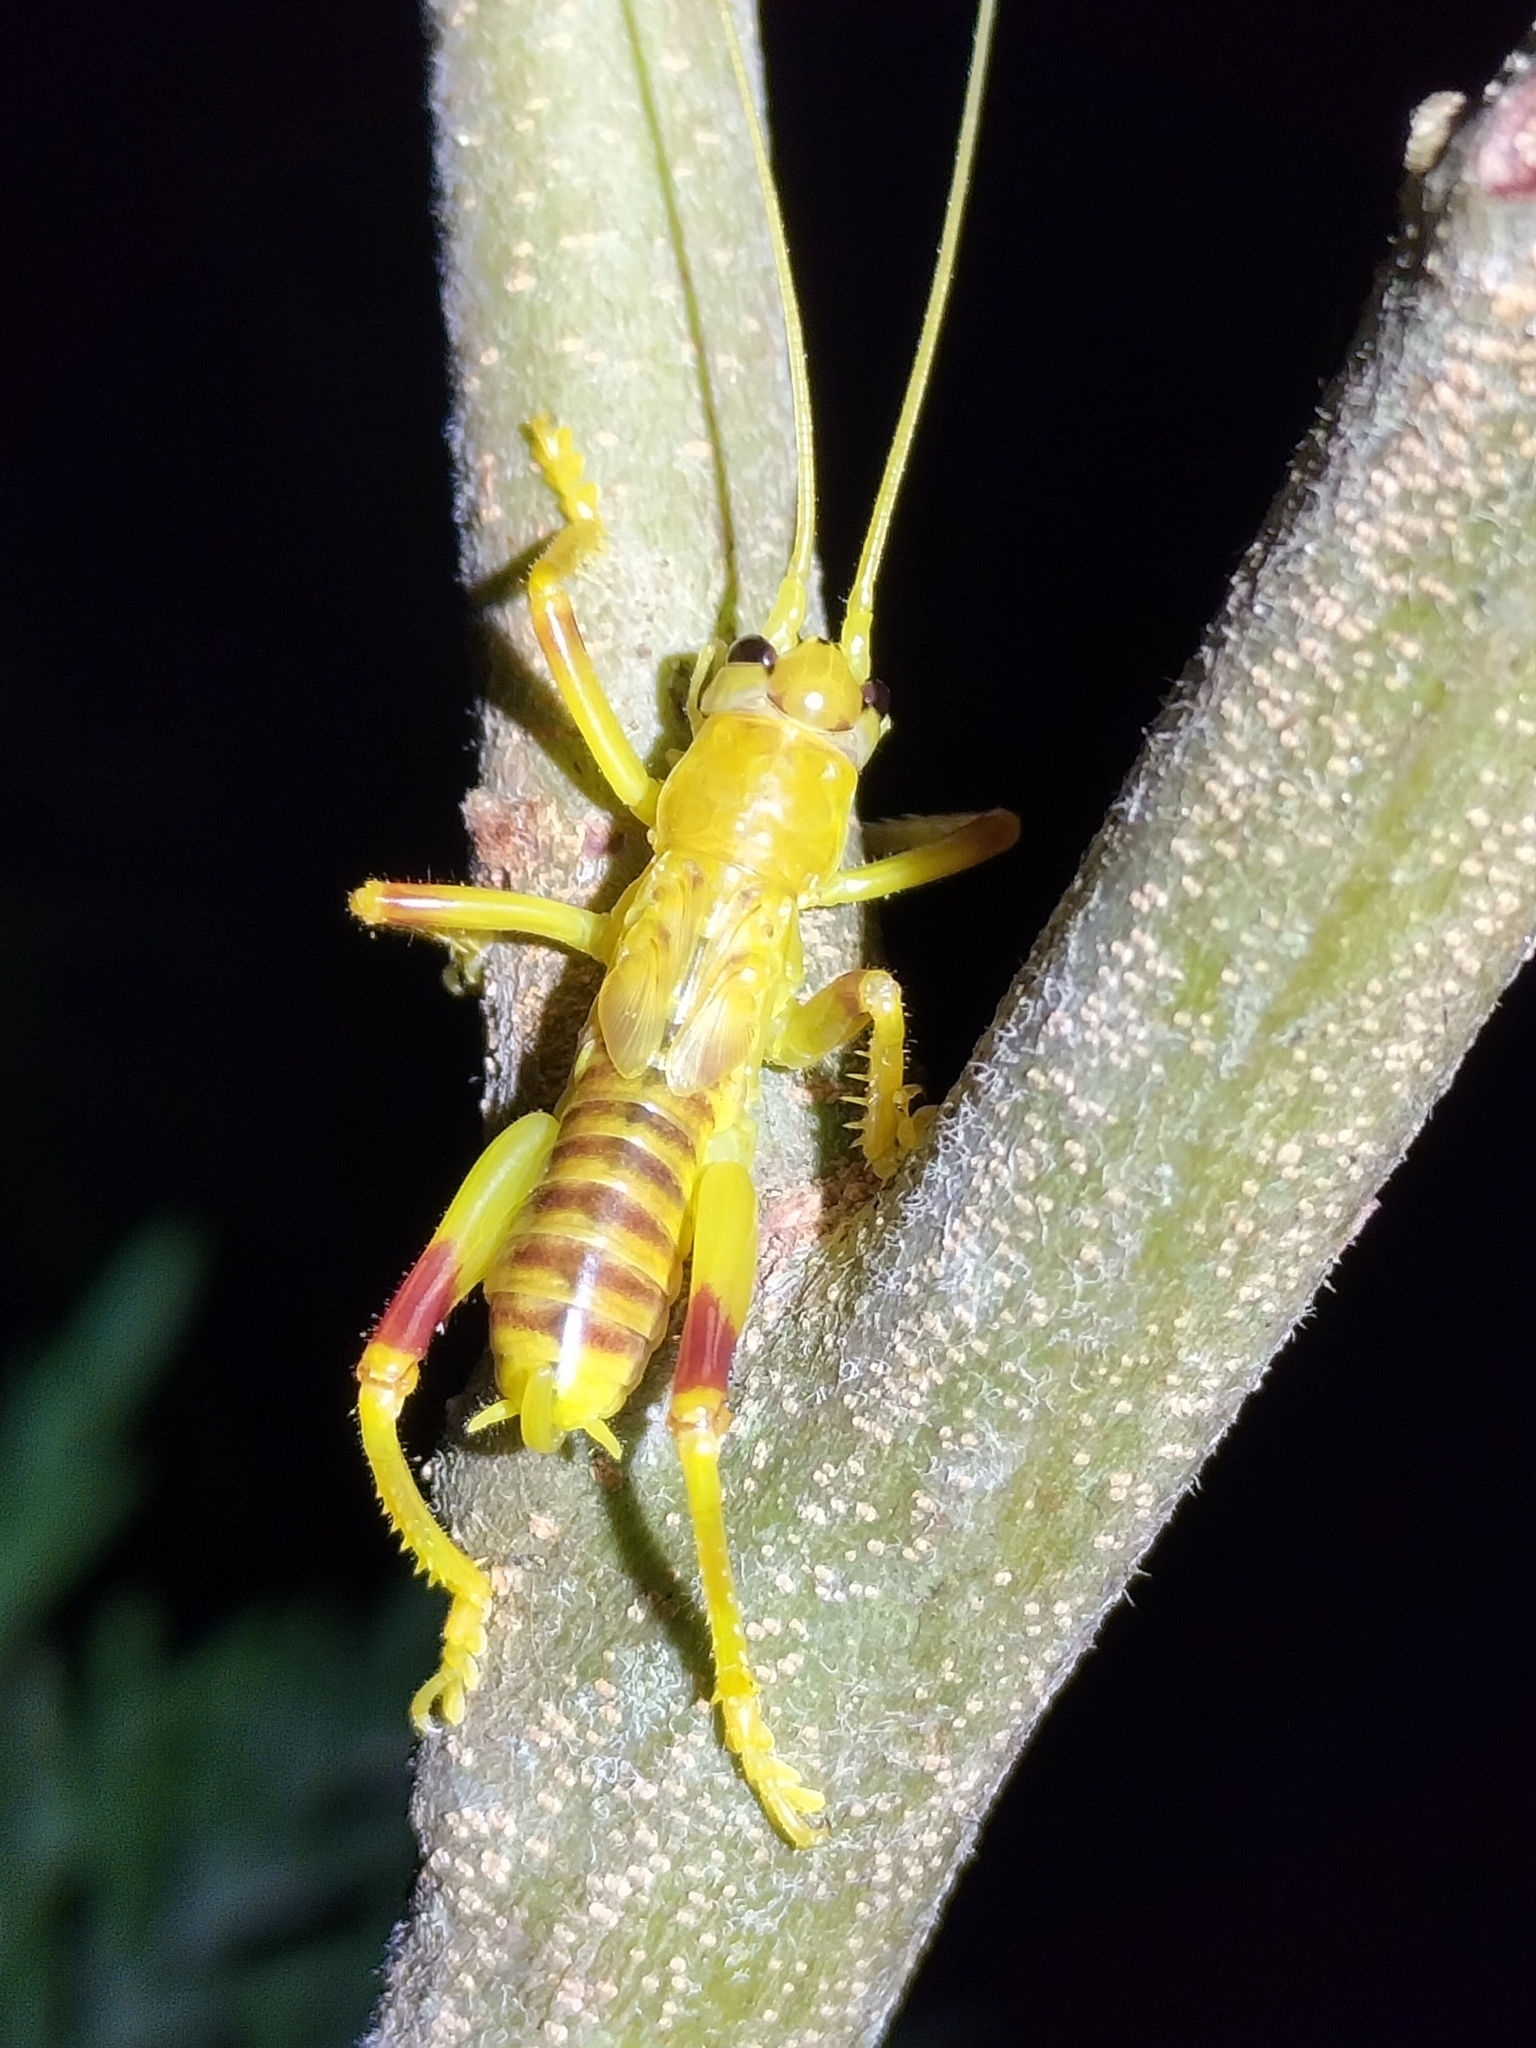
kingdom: Animalia
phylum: Arthropoda
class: Insecta
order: Orthoptera
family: Gryllacrididae
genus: Epacra
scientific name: Epacra modesta
